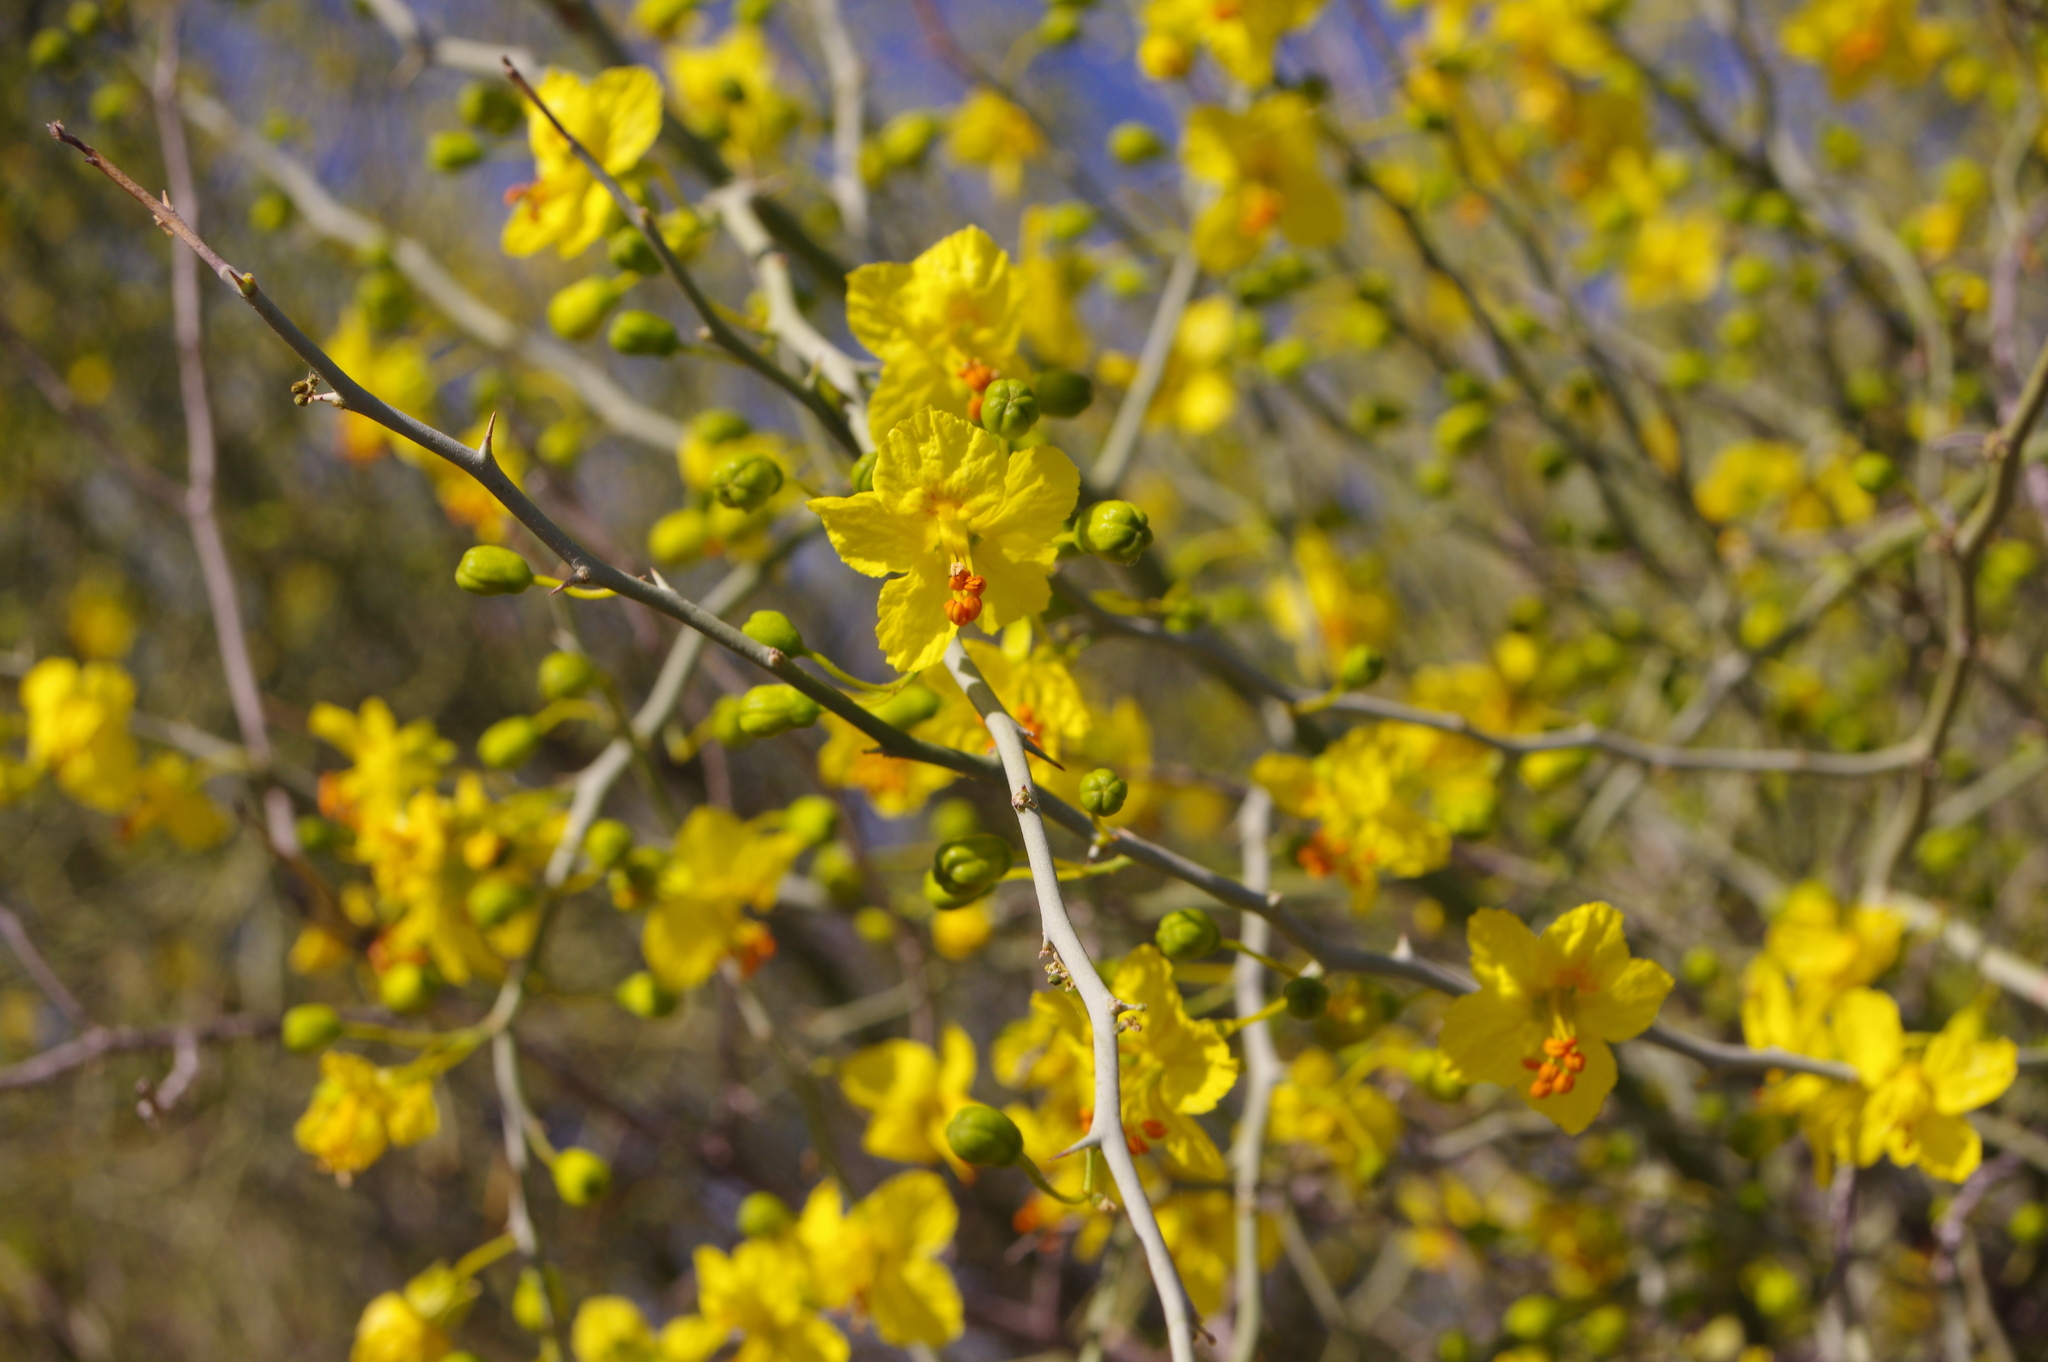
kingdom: Plantae
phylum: Tracheophyta
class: Magnoliopsida
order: Fabales
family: Fabaceae
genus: Parkinsonia
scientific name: Parkinsonia florida
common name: Blue paloverde
